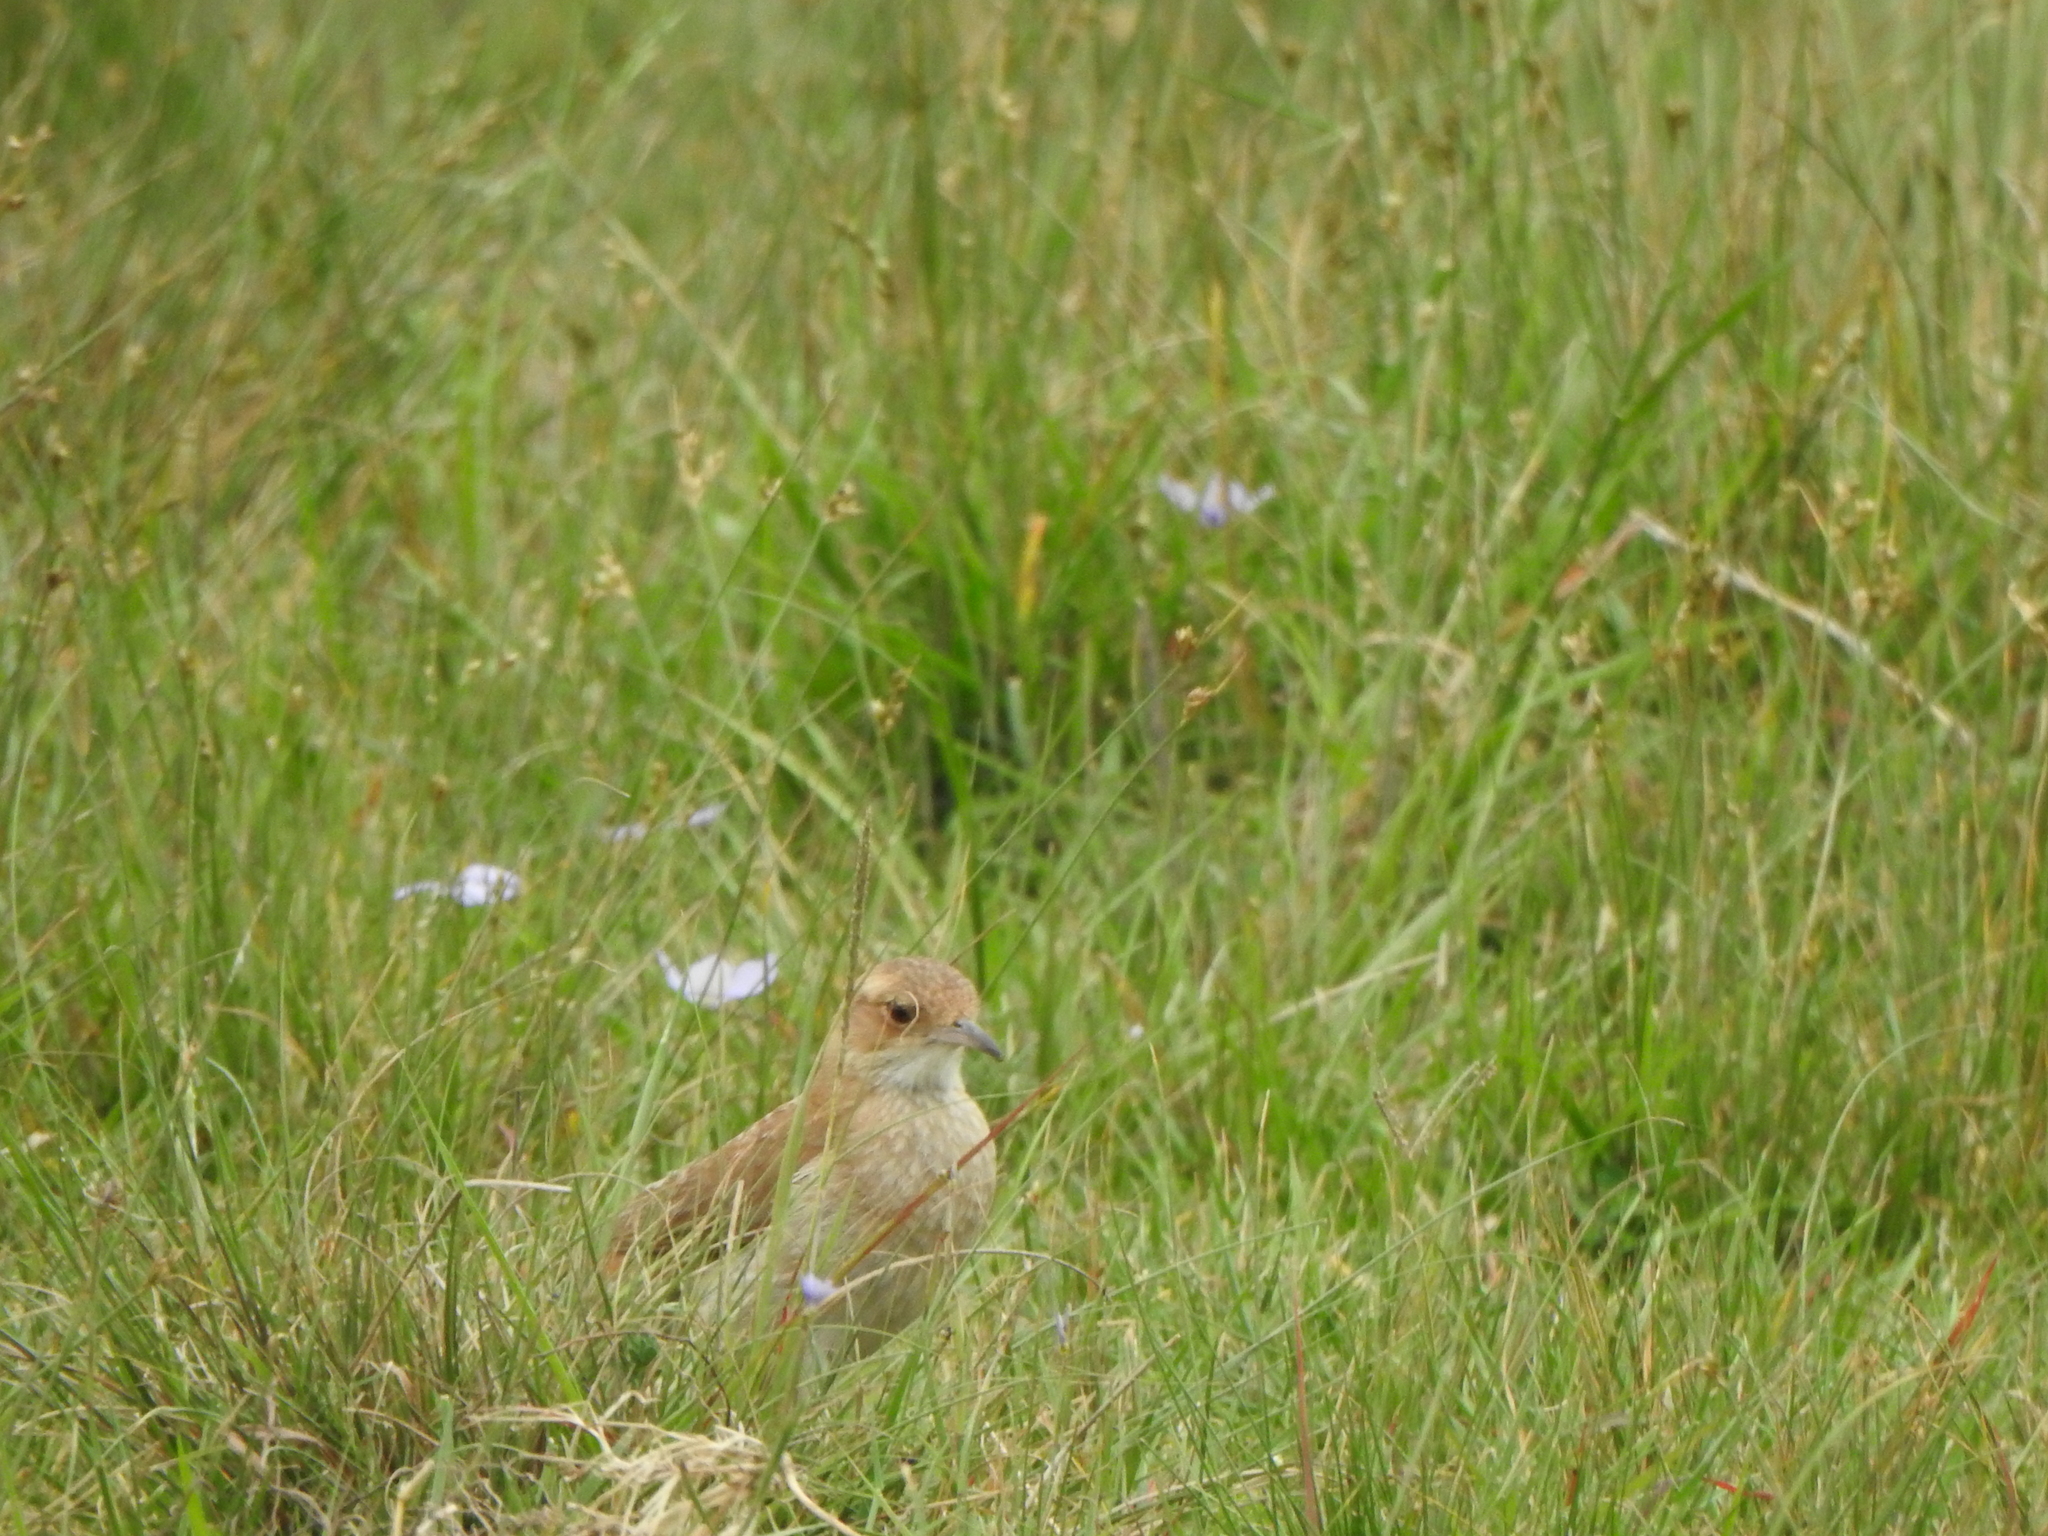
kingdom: Animalia
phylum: Chordata
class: Aves
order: Passeriformes
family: Furnariidae
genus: Furnarius
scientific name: Furnarius rufus
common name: Rufous hornero
